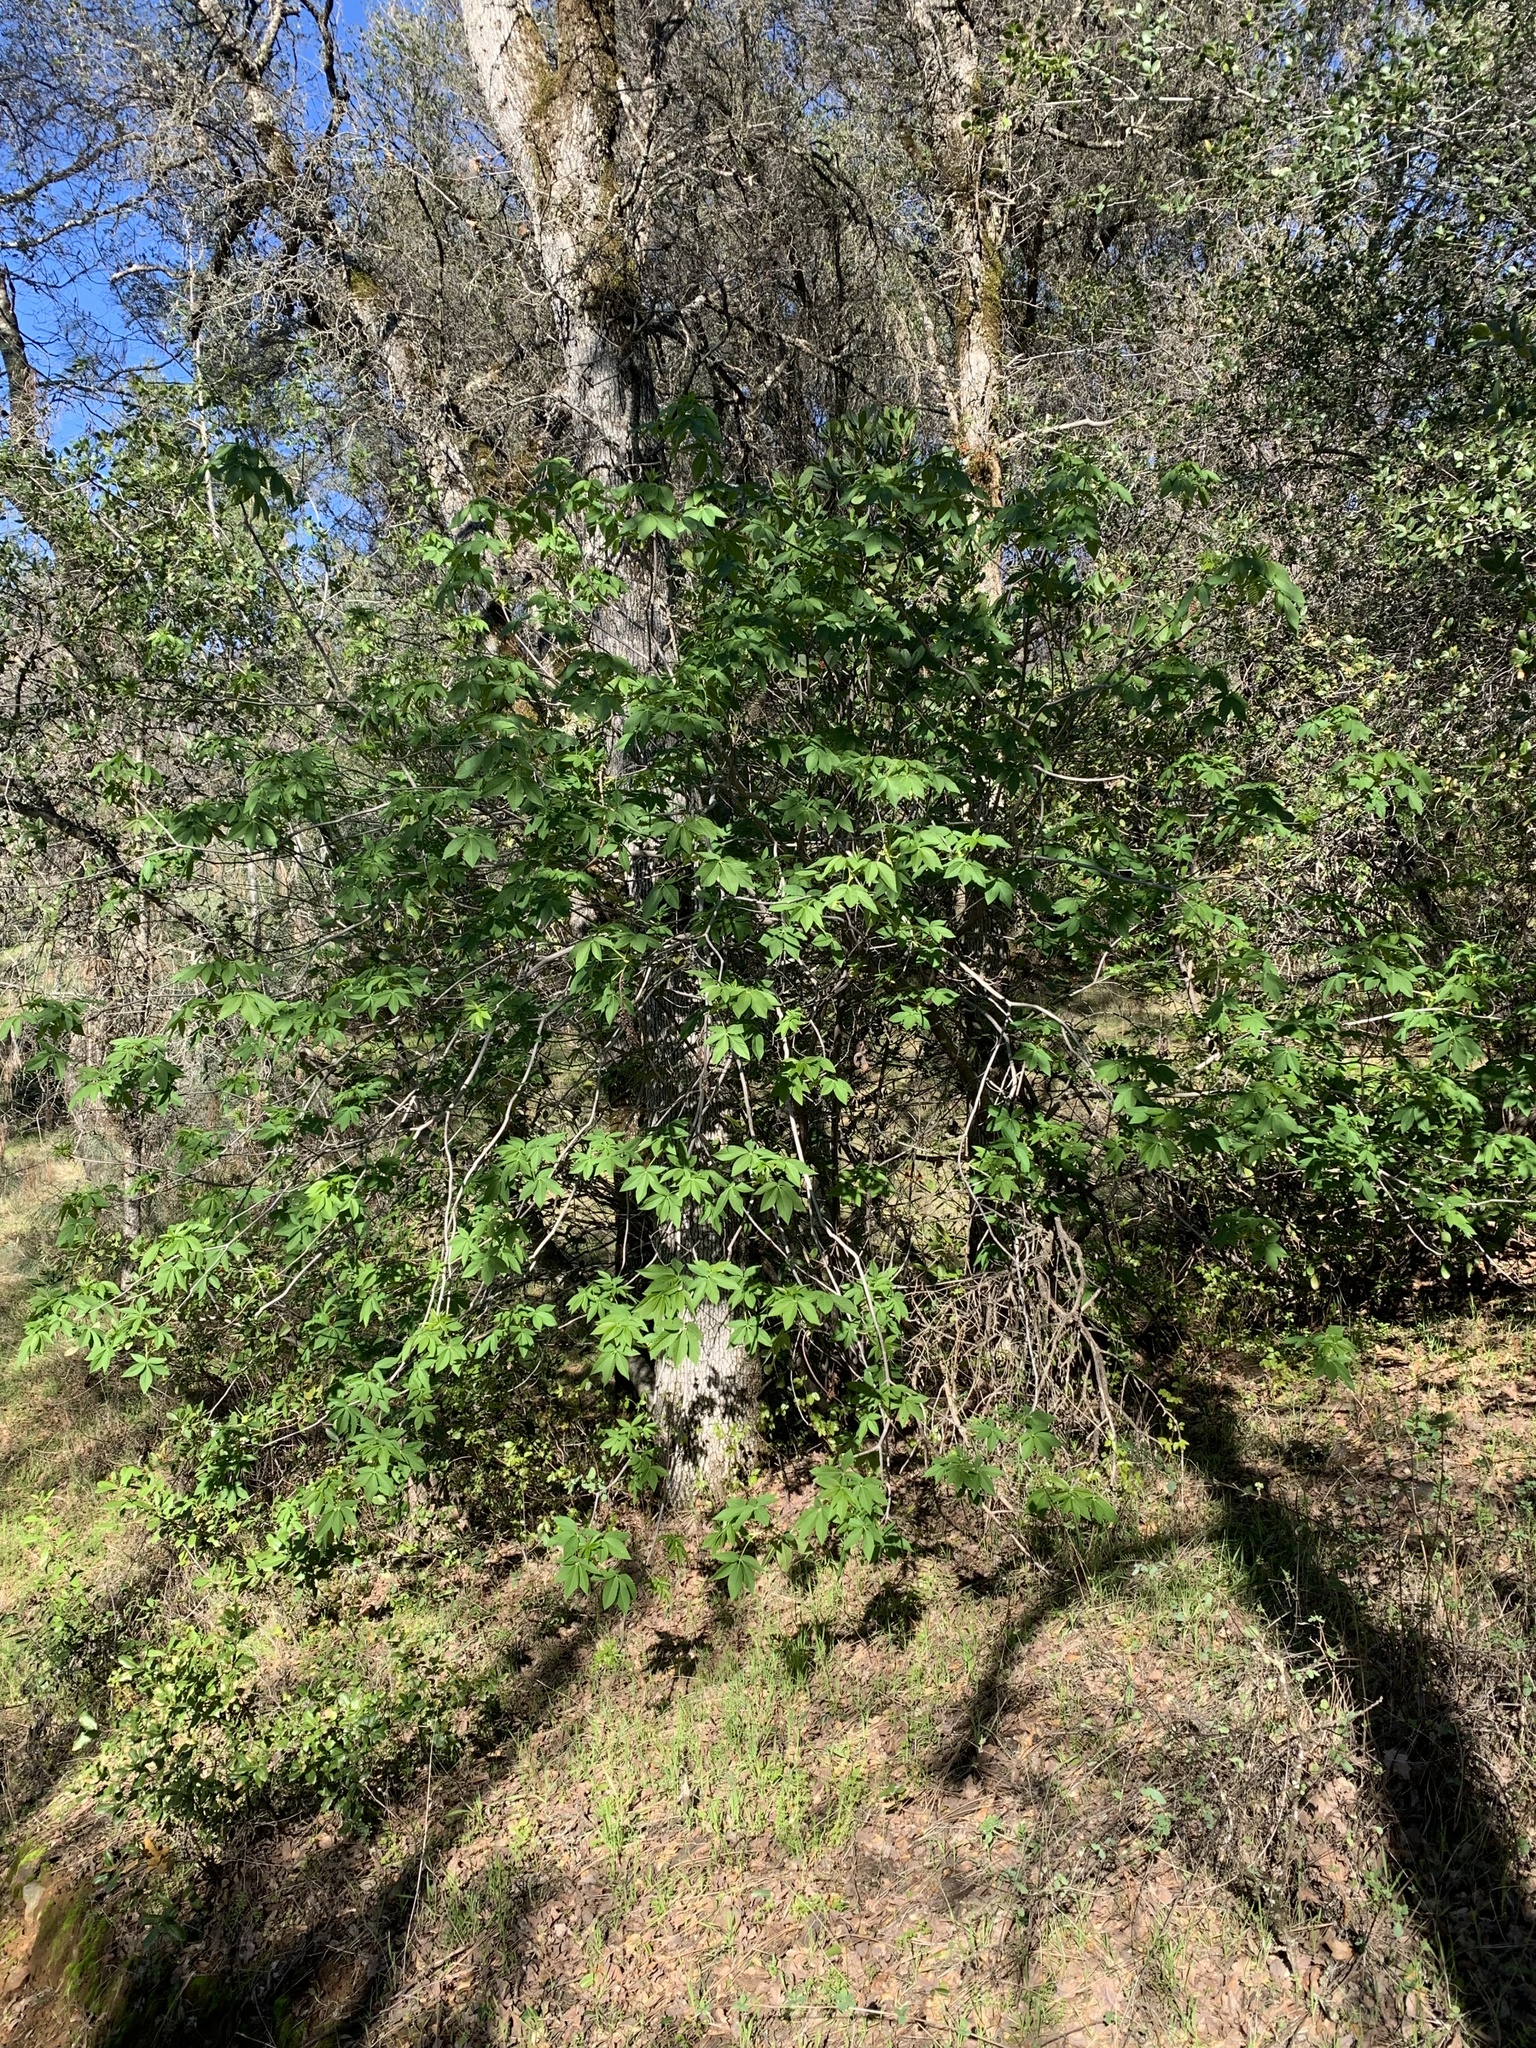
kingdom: Plantae
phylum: Tracheophyta
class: Magnoliopsida
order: Sapindales
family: Sapindaceae
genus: Aesculus
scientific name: Aesculus californica
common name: California buckeye
